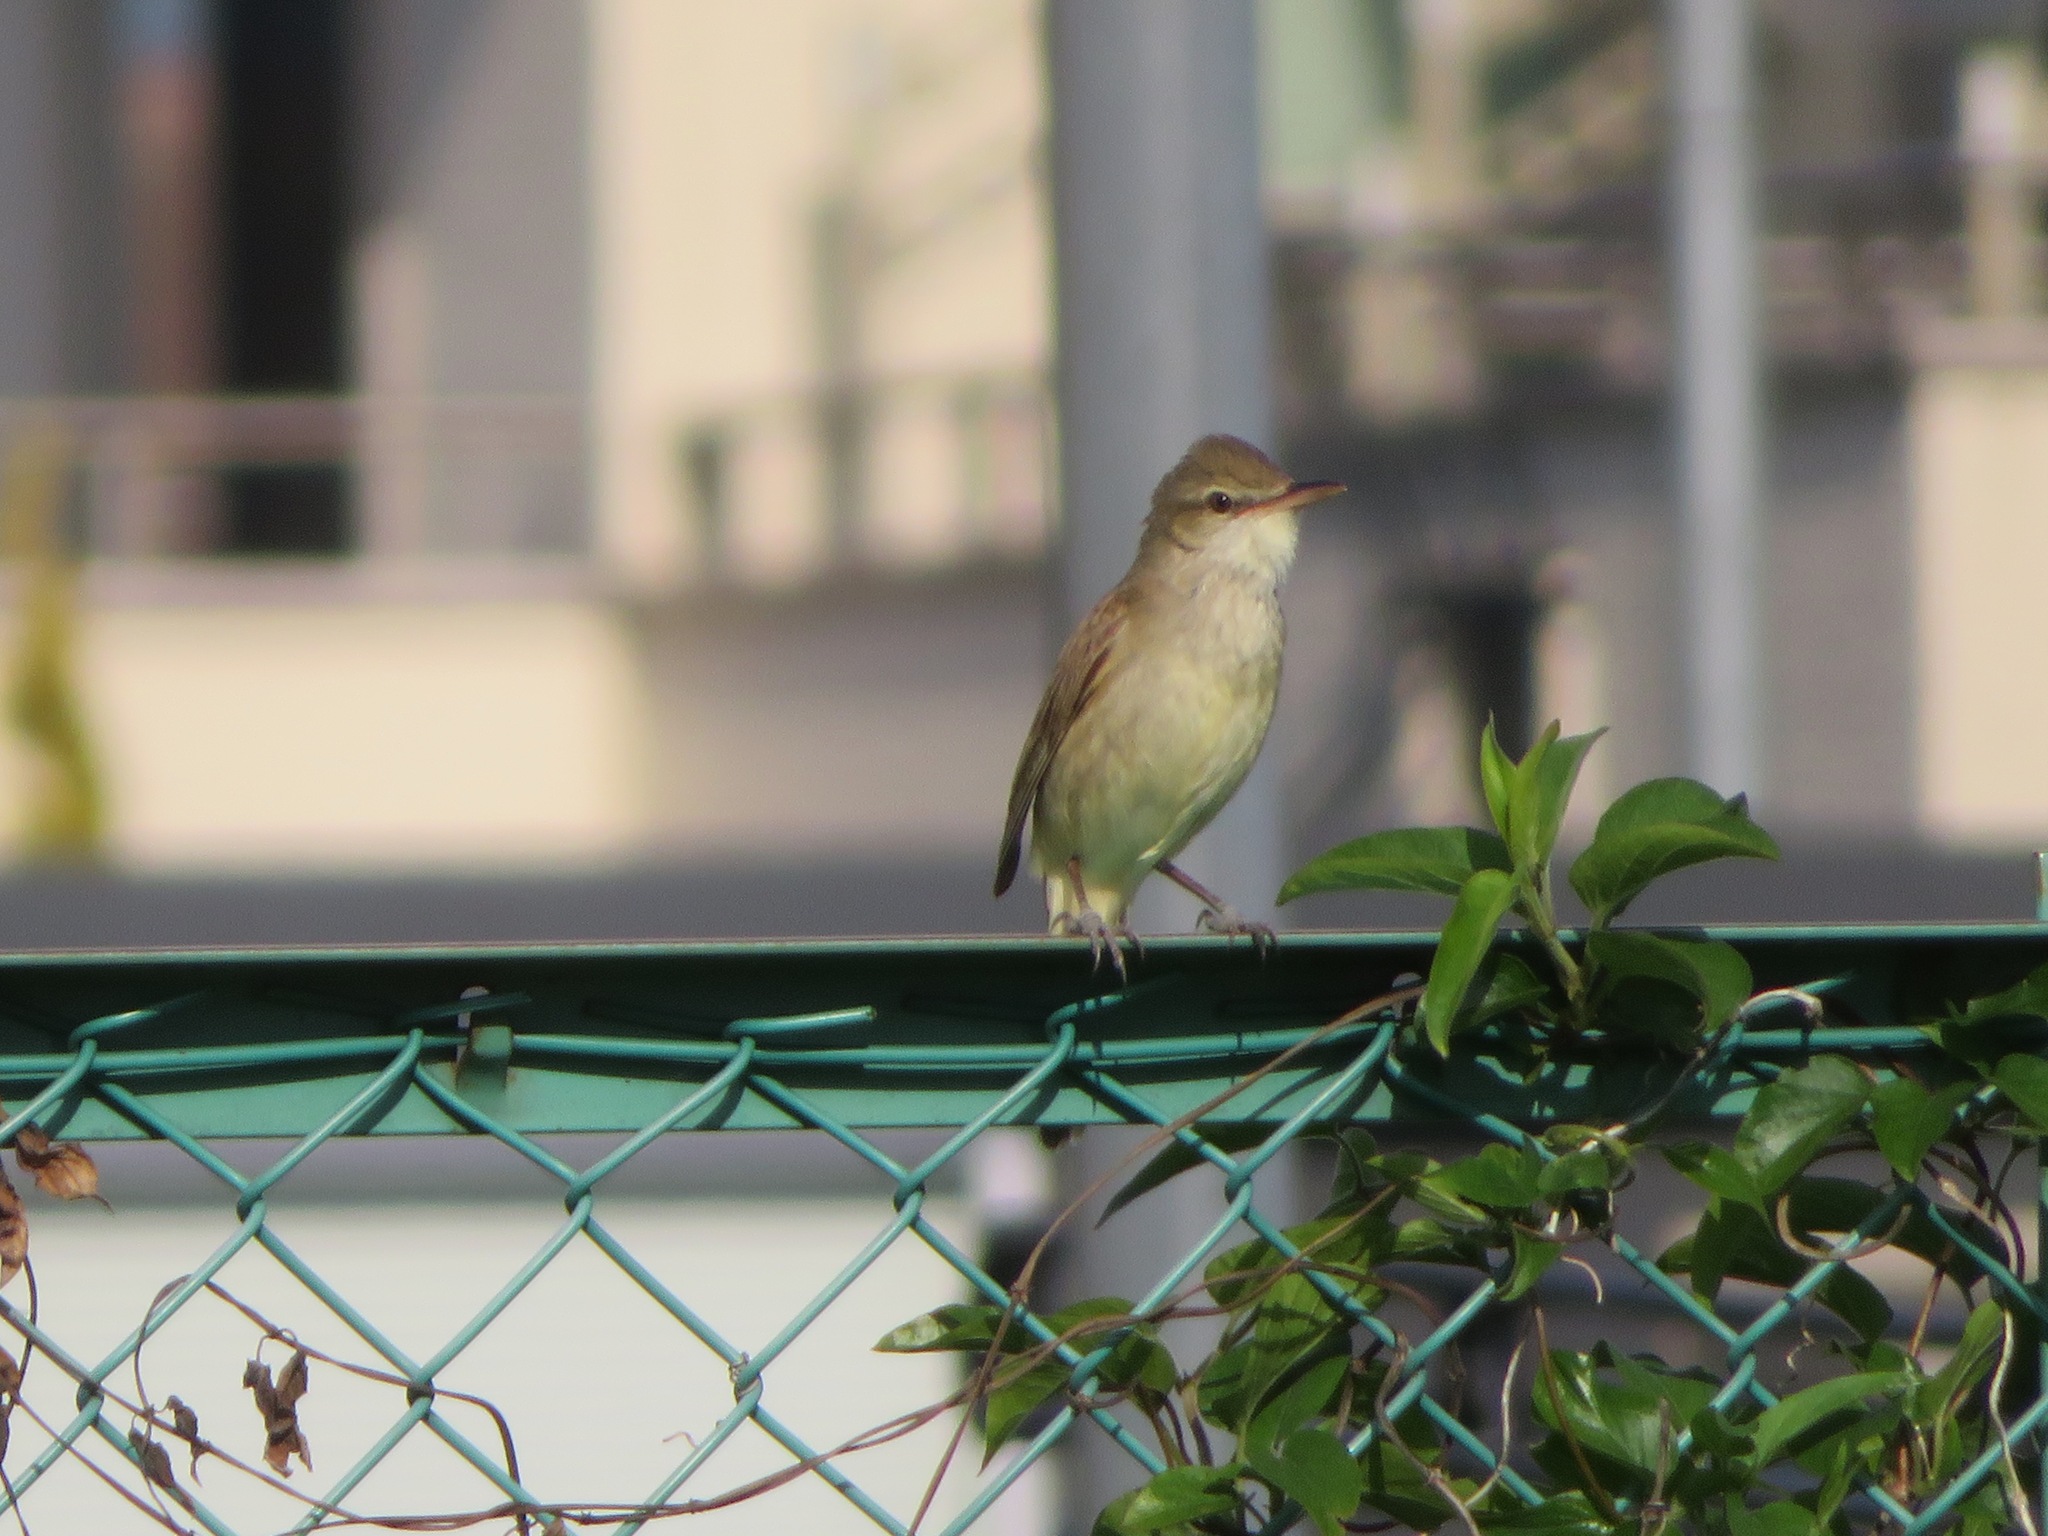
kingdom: Animalia
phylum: Chordata
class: Aves
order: Passeriformes
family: Acrocephalidae
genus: Acrocephalus
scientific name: Acrocephalus orientalis
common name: Oriental reed warbler
